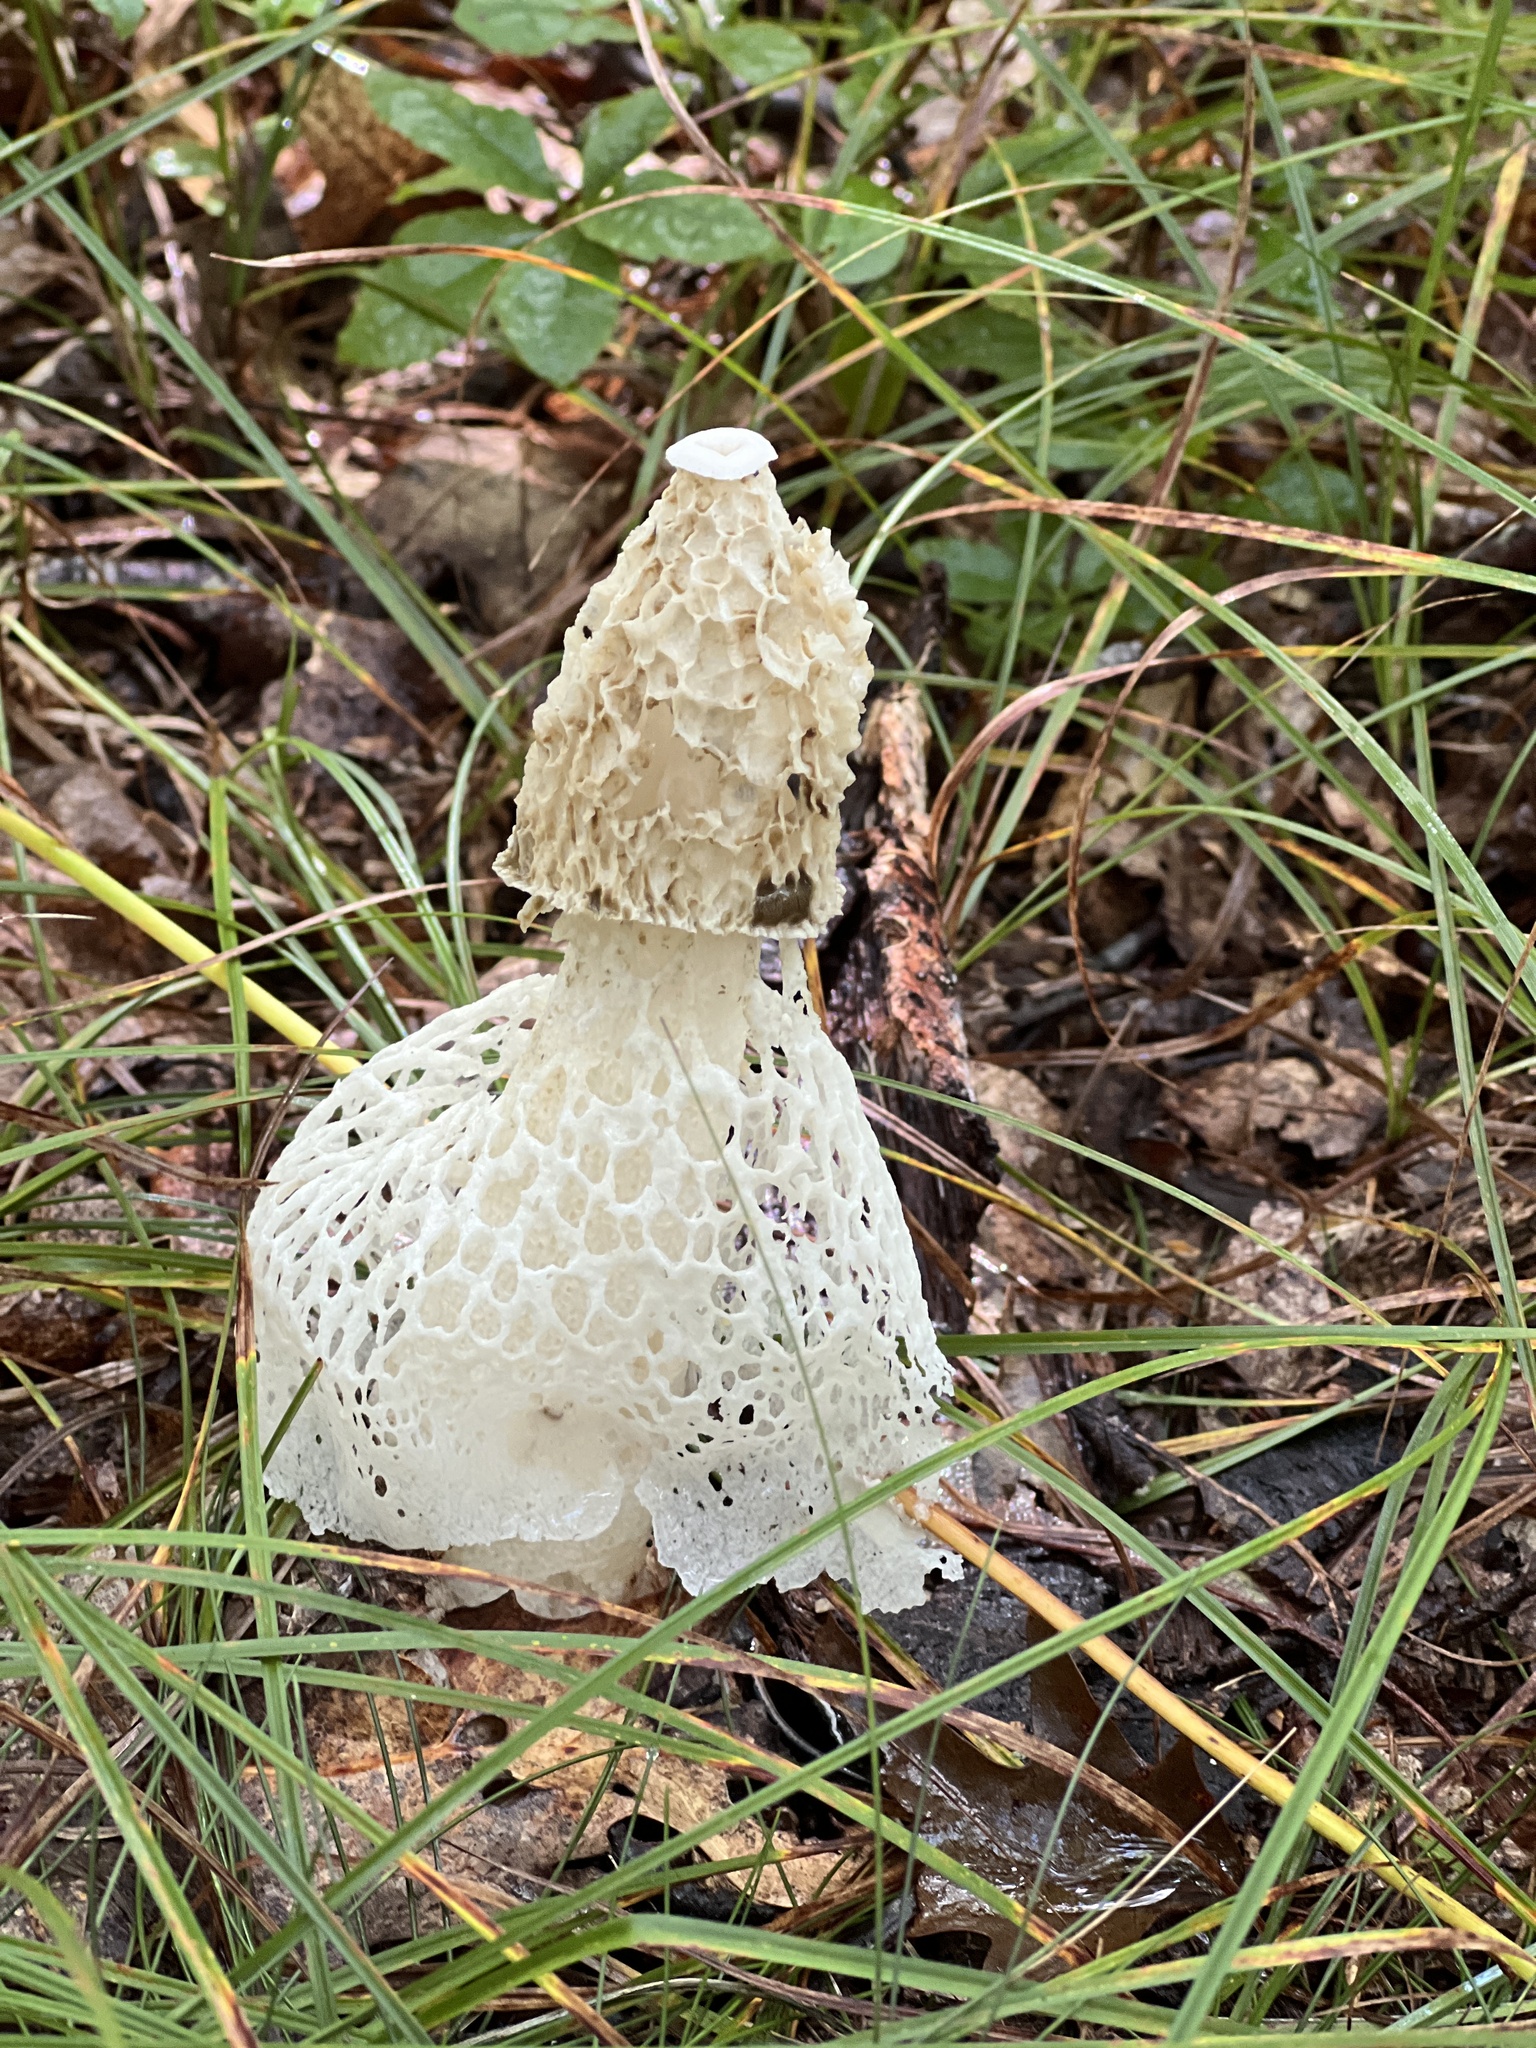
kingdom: Fungi
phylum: Basidiomycota
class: Agaricomycetes
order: Phallales
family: Phallaceae
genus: Phallus
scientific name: Phallus indusiatus
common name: Bridal veil stinkhorn
